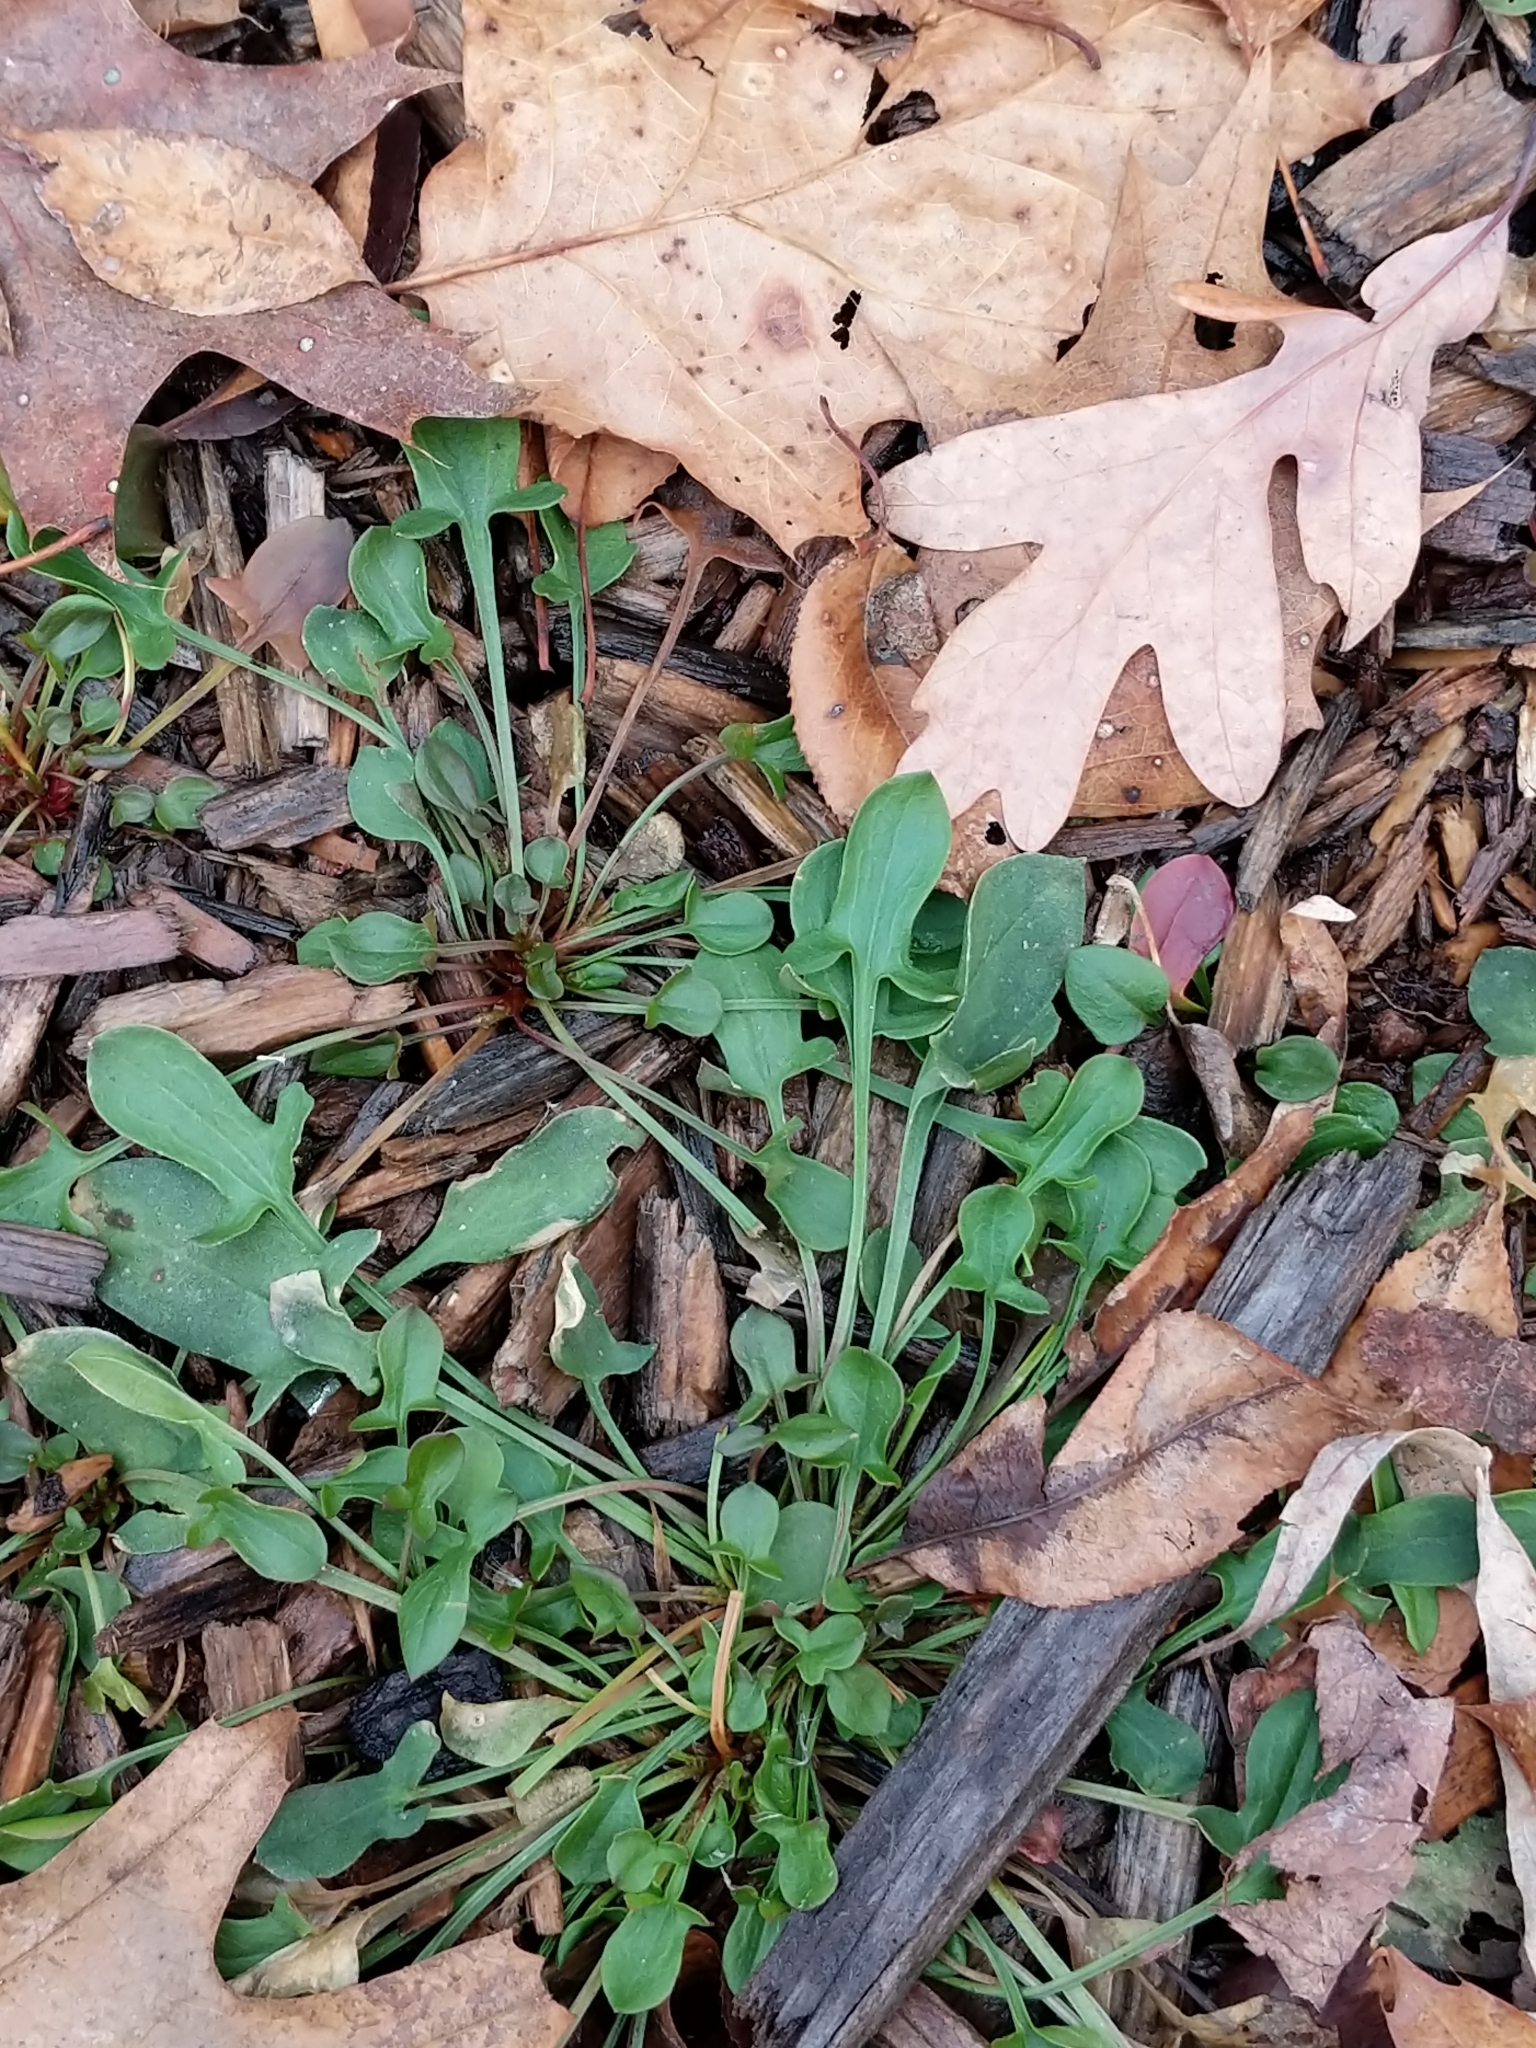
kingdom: Plantae
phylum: Tracheophyta
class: Magnoliopsida
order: Caryophyllales
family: Polygonaceae
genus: Rumex
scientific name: Rumex acetosella
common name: Common sheep sorrel
